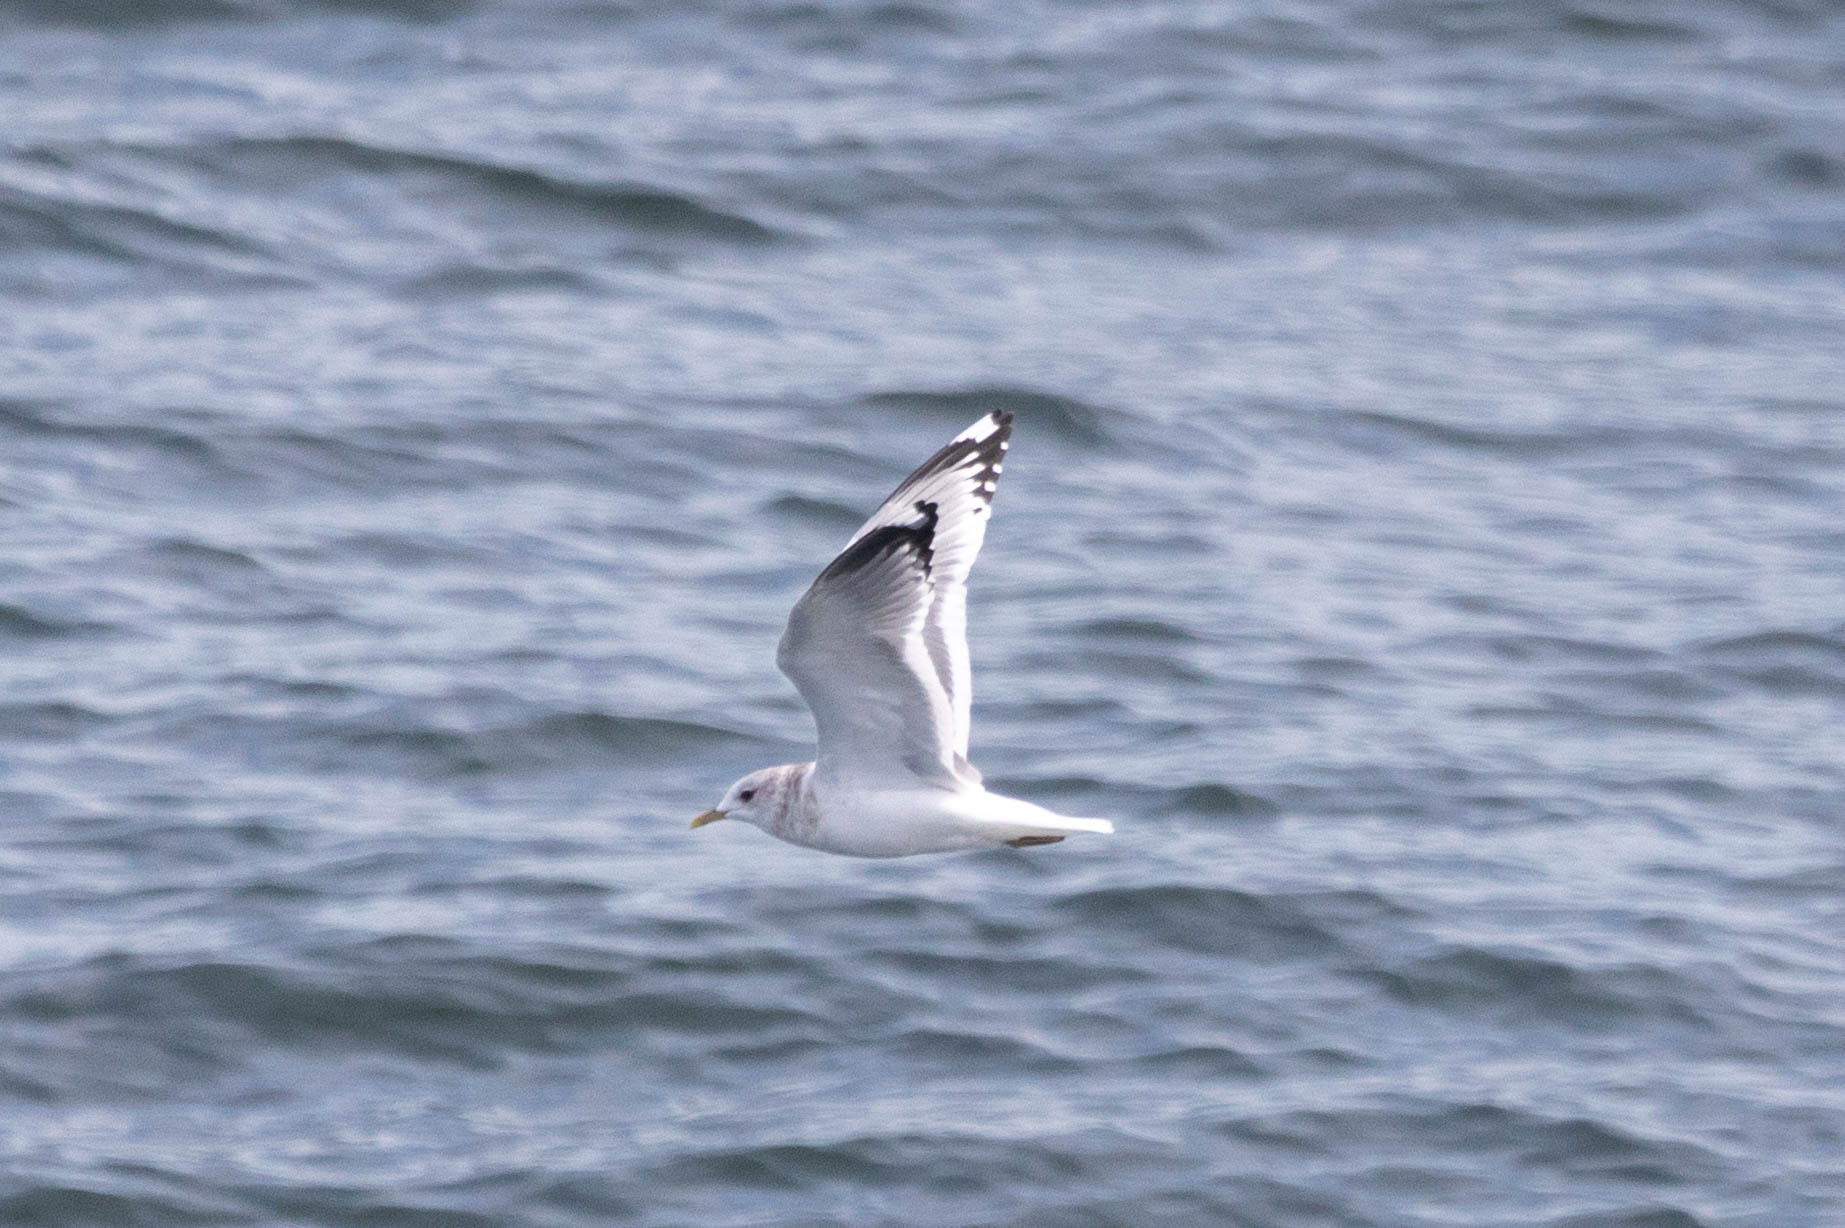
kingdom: Animalia
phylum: Chordata
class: Aves
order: Charadriiformes
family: Laridae
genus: Larus
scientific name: Larus brachyrhynchus
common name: Short-billed gull
